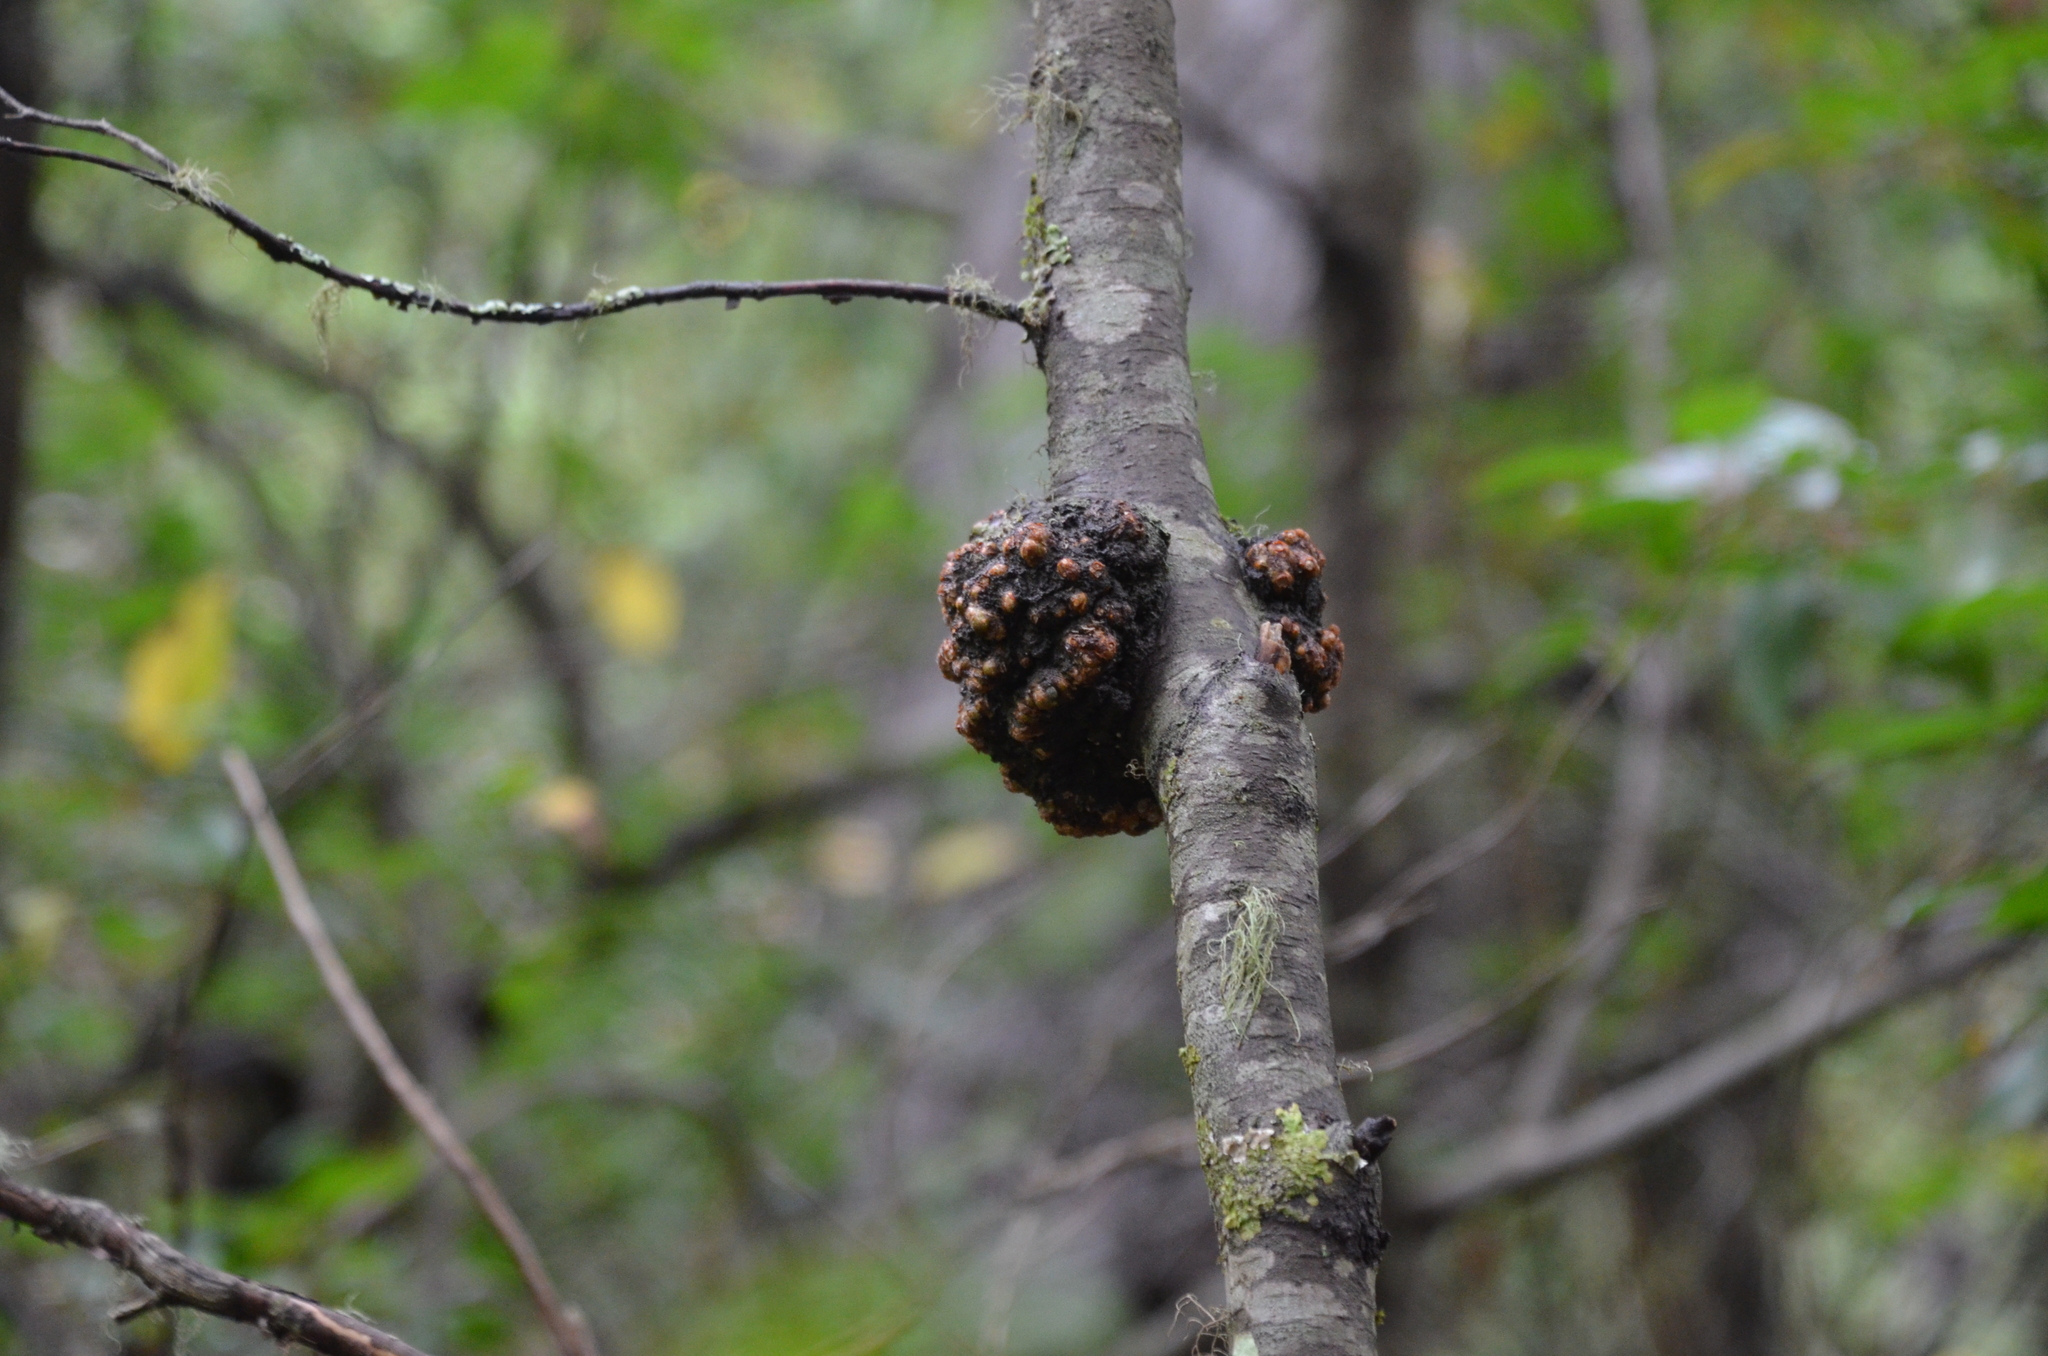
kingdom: Fungi
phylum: Ascomycota
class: Leotiomycetes
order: Cyttariales
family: Cyttariaceae
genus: Cyttaria
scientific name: Cyttaria hariotii
